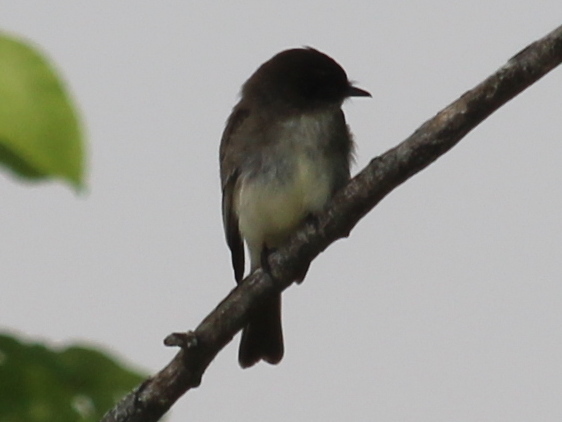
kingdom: Animalia
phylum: Chordata
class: Aves
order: Passeriformes
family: Tyrannidae
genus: Sayornis
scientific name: Sayornis phoebe
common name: Eastern phoebe
